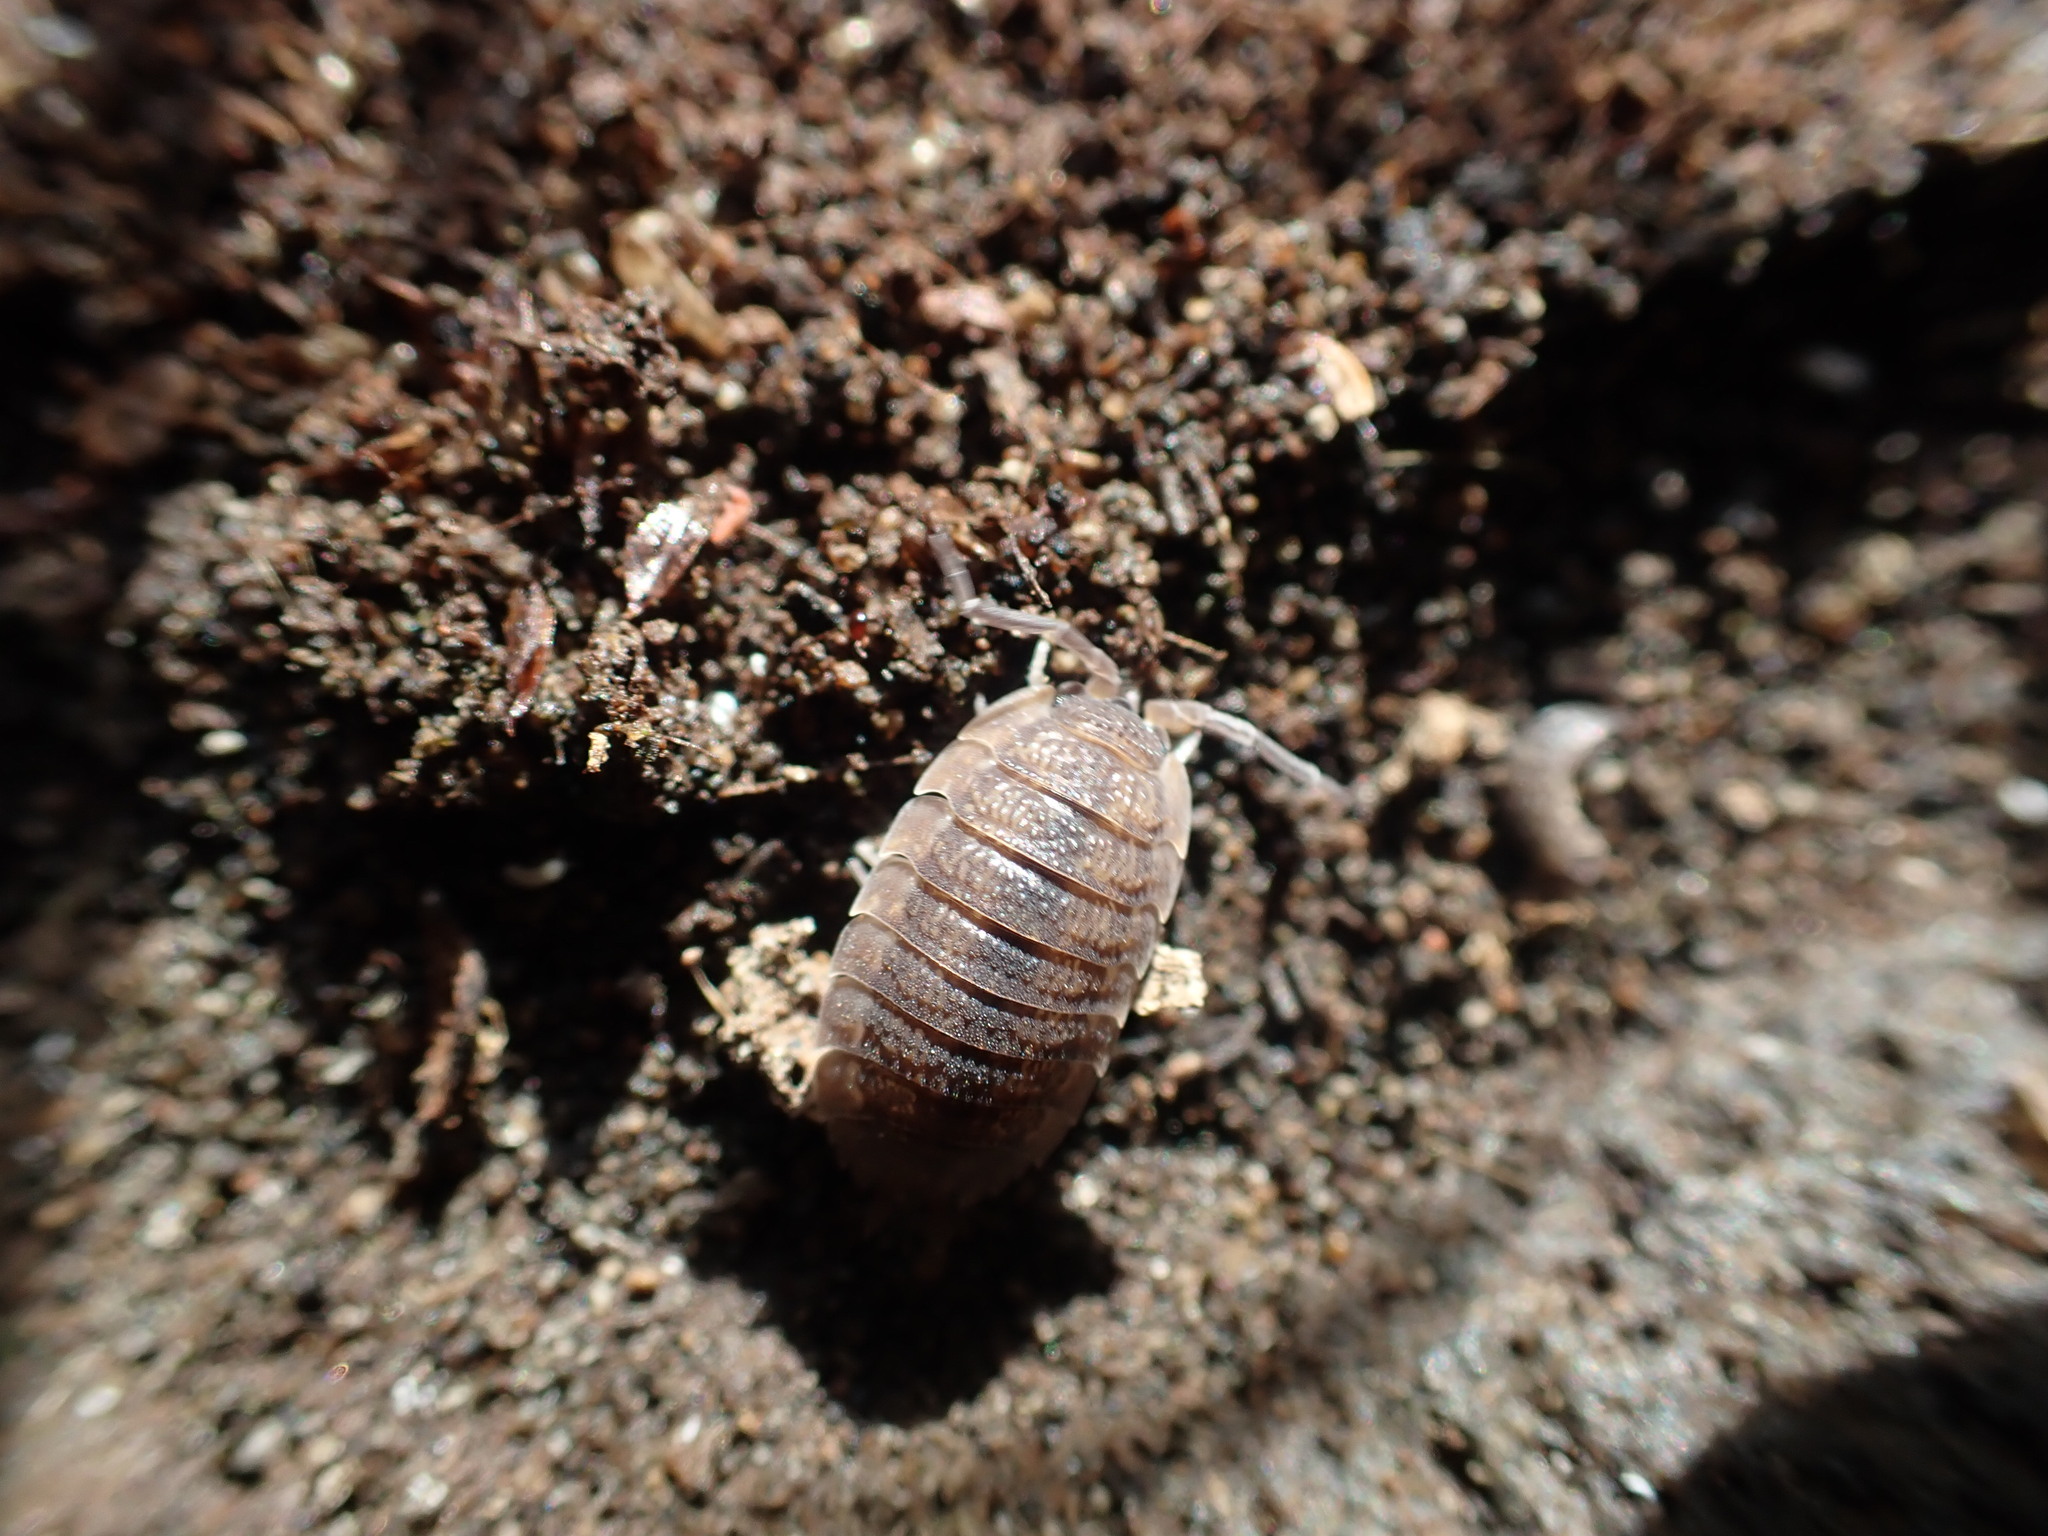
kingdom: Animalia
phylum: Arthropoda
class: Malacostraca
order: Isopoda
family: Porcellionidae
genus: Porcellio
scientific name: Porcellio scaber
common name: Common rough woodlouse
